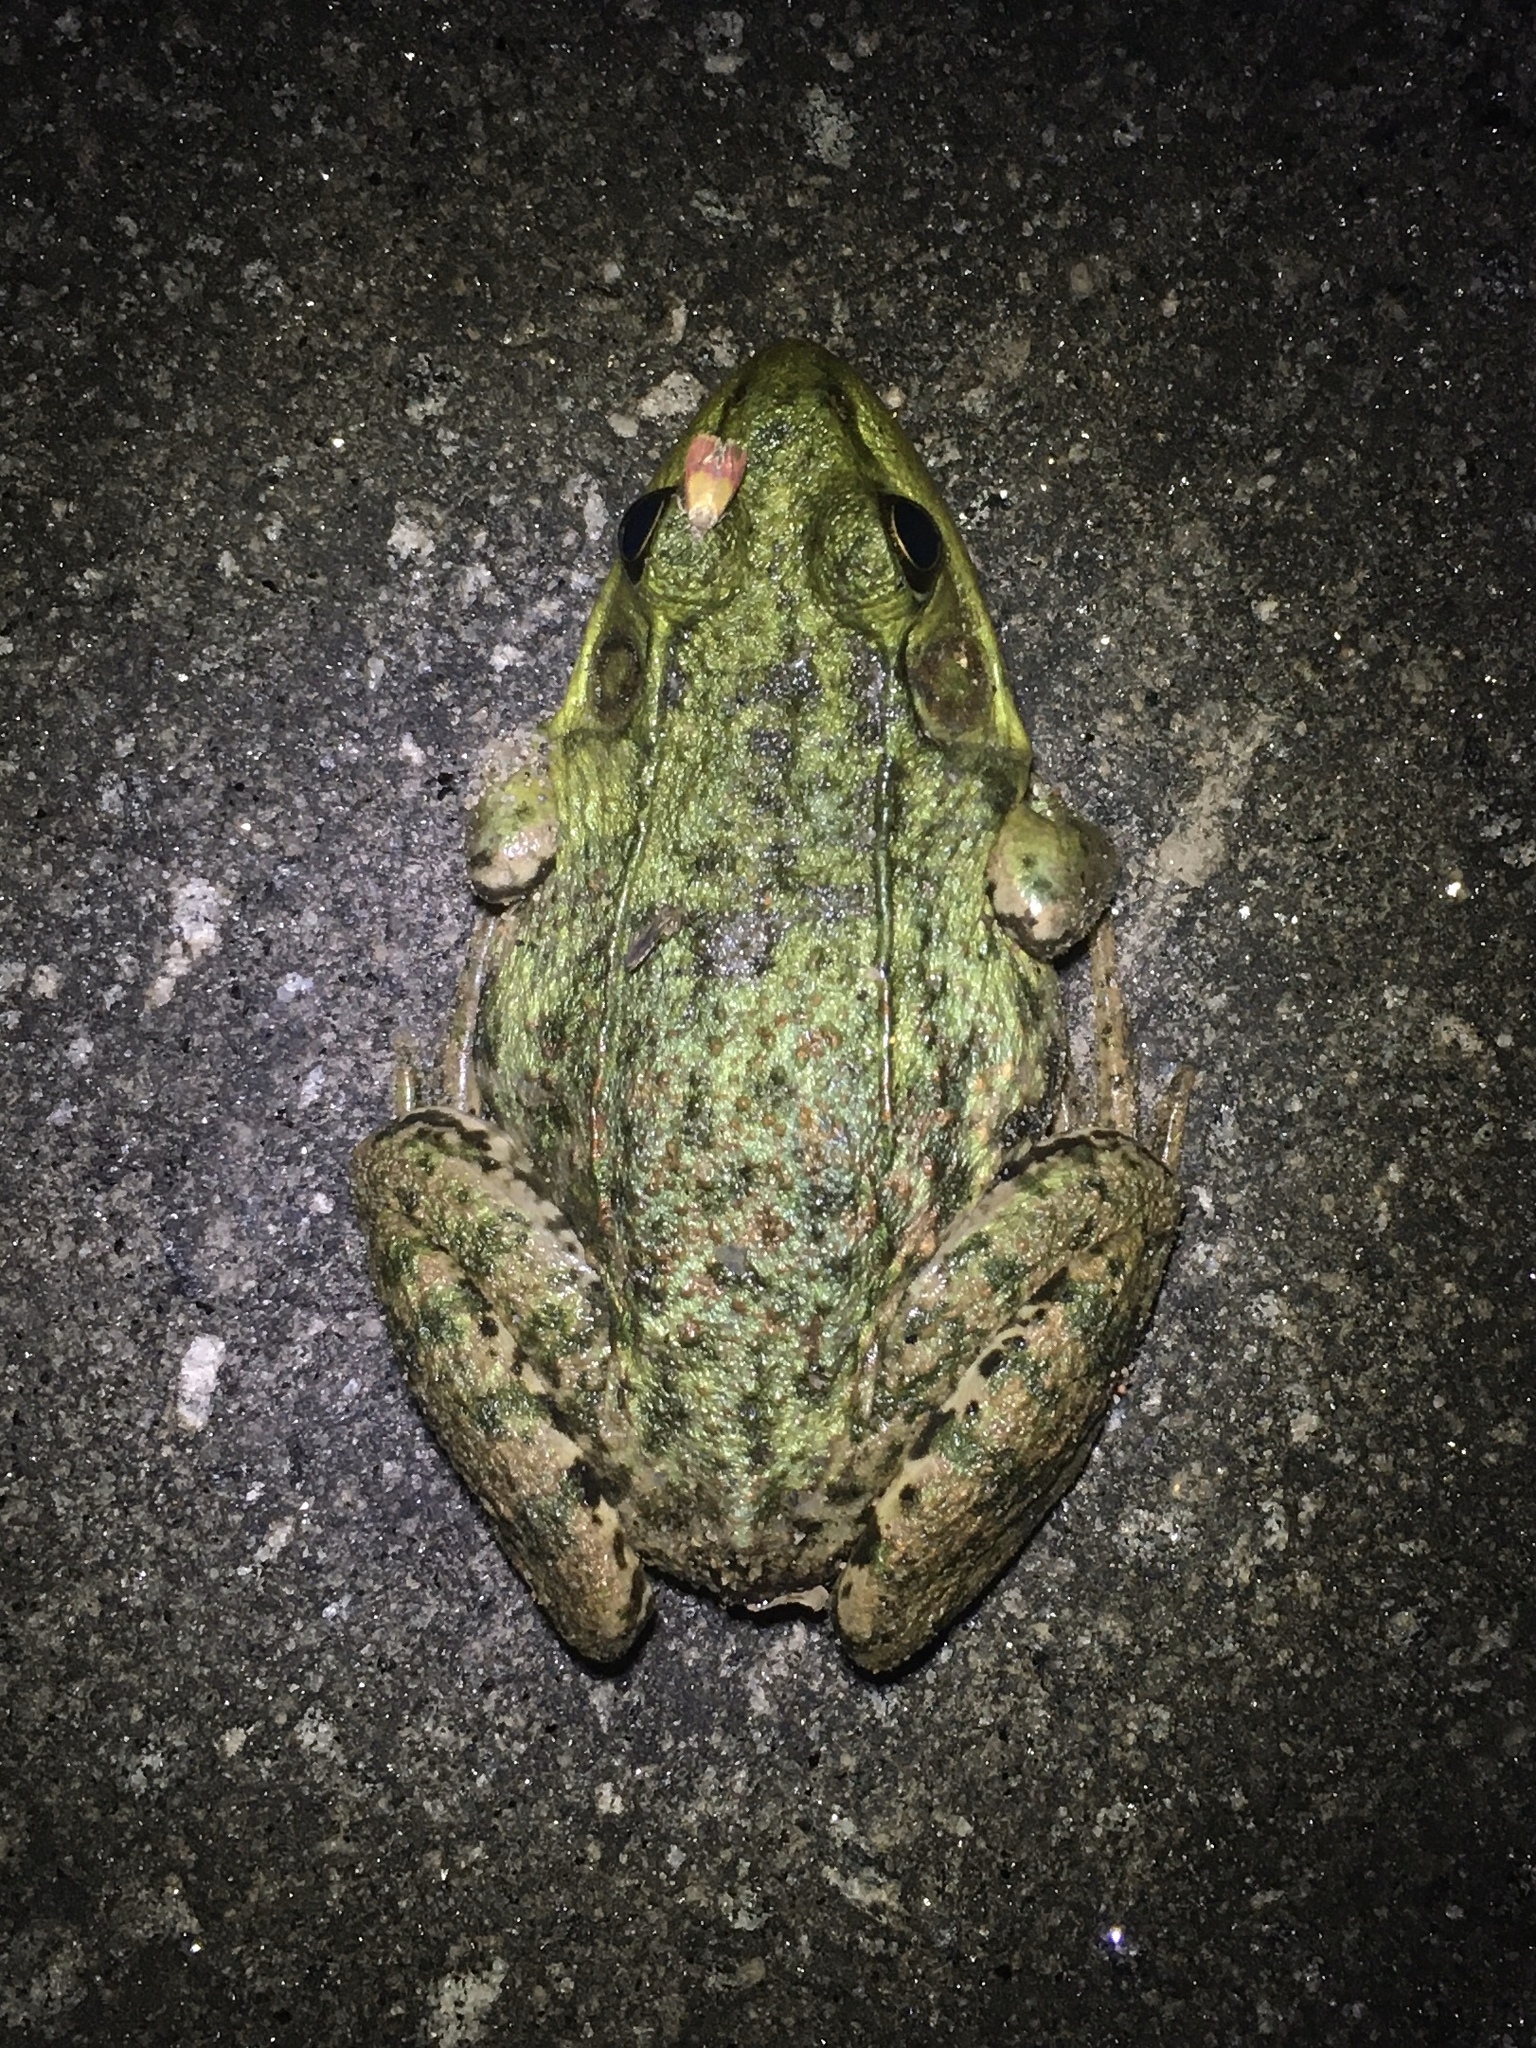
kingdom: Animalia
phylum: Chordata
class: Amphibia
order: Anura
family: Ranidae
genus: Lithobates
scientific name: Lithobates clamitans
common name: Green frog
